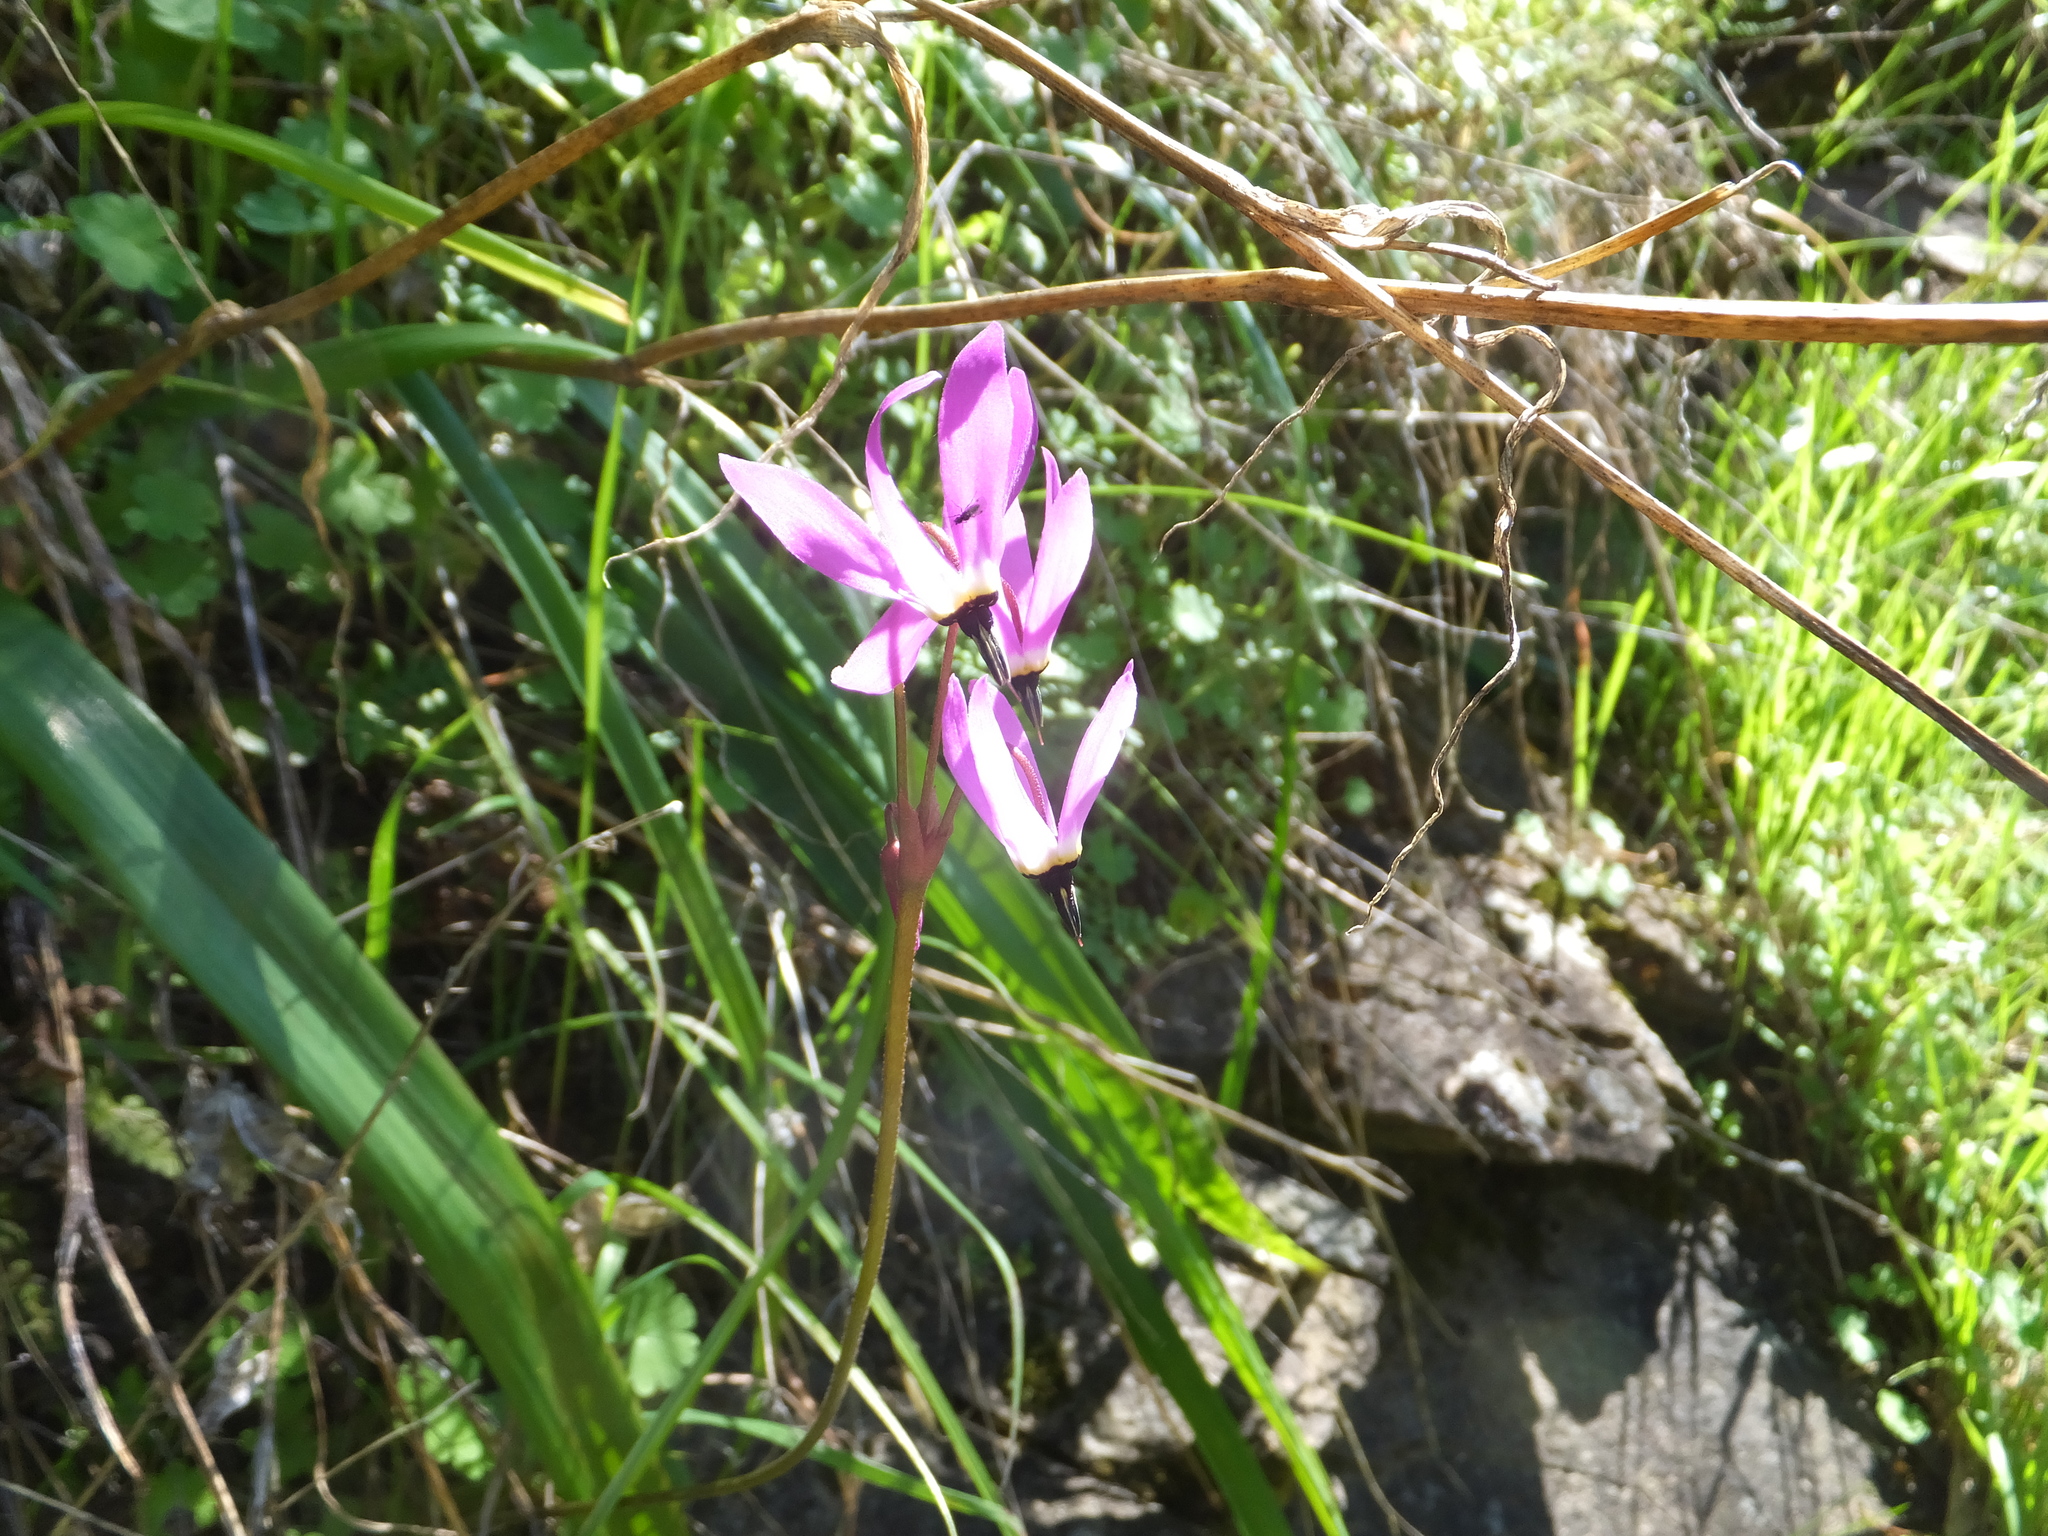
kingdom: Plantae
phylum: Tracheophyta
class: Magnoliopsida
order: Ericales
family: Primulaceae
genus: Dodecatheon
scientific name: Dodecatheon hendersonii
